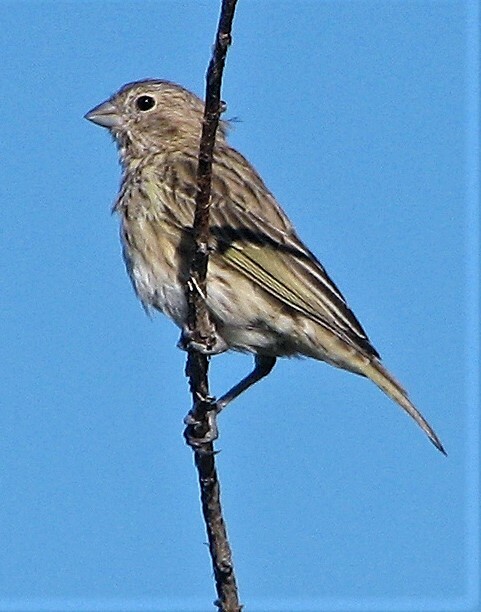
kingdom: Animalia
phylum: Chordata
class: Aves
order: Passeriformes
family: Thraupidae
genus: Sicalis
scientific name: Sicalis flaveola
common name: Saffron finch
